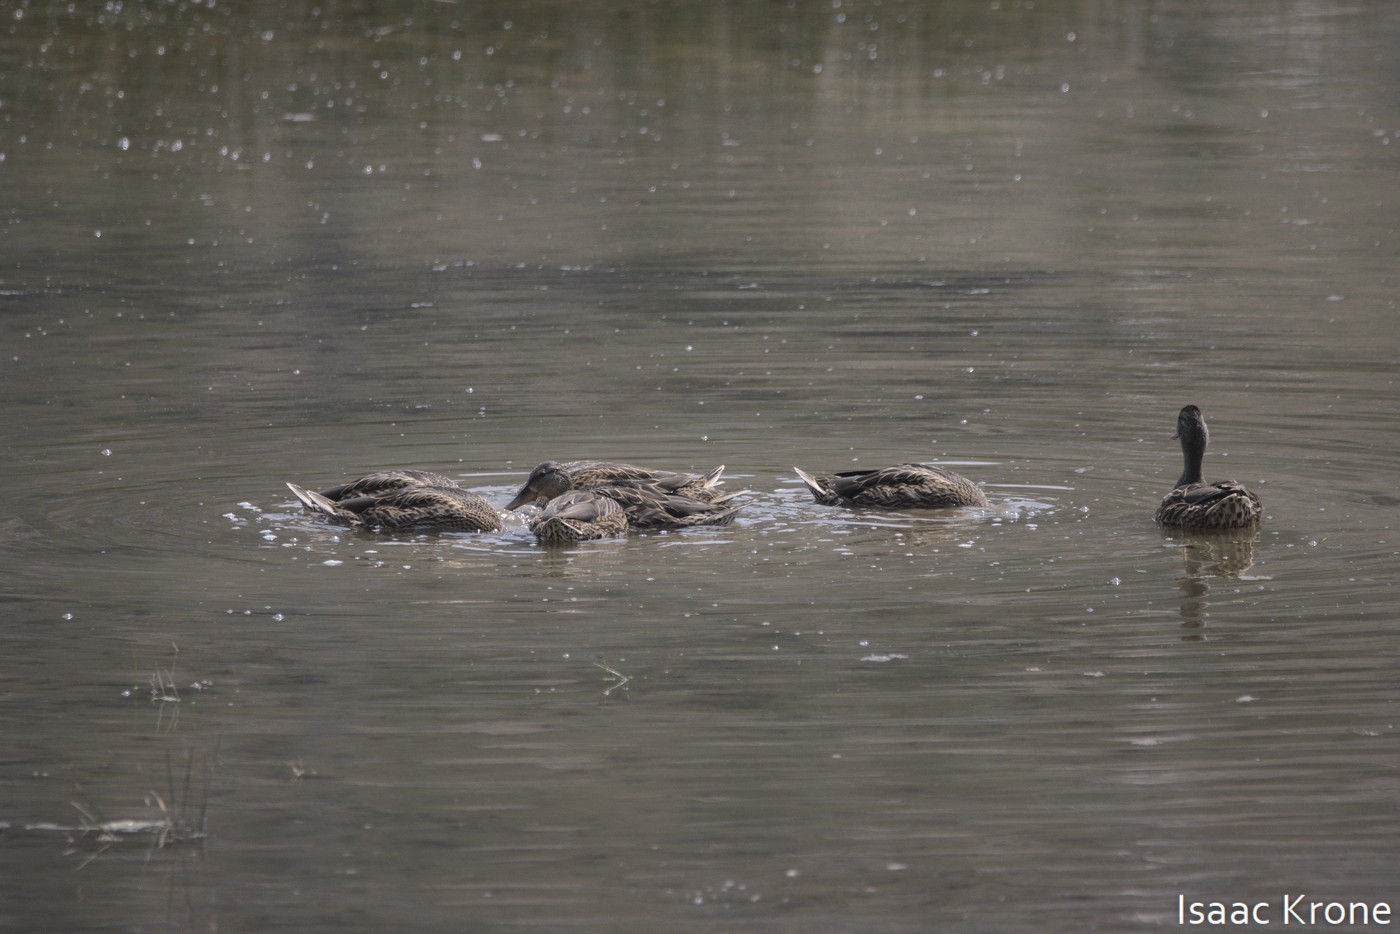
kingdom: Animalia
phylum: Chordata
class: Aves
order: Anseriformes
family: Anatidae
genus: Anas
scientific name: Anas platyrhynchos
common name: Mallard
